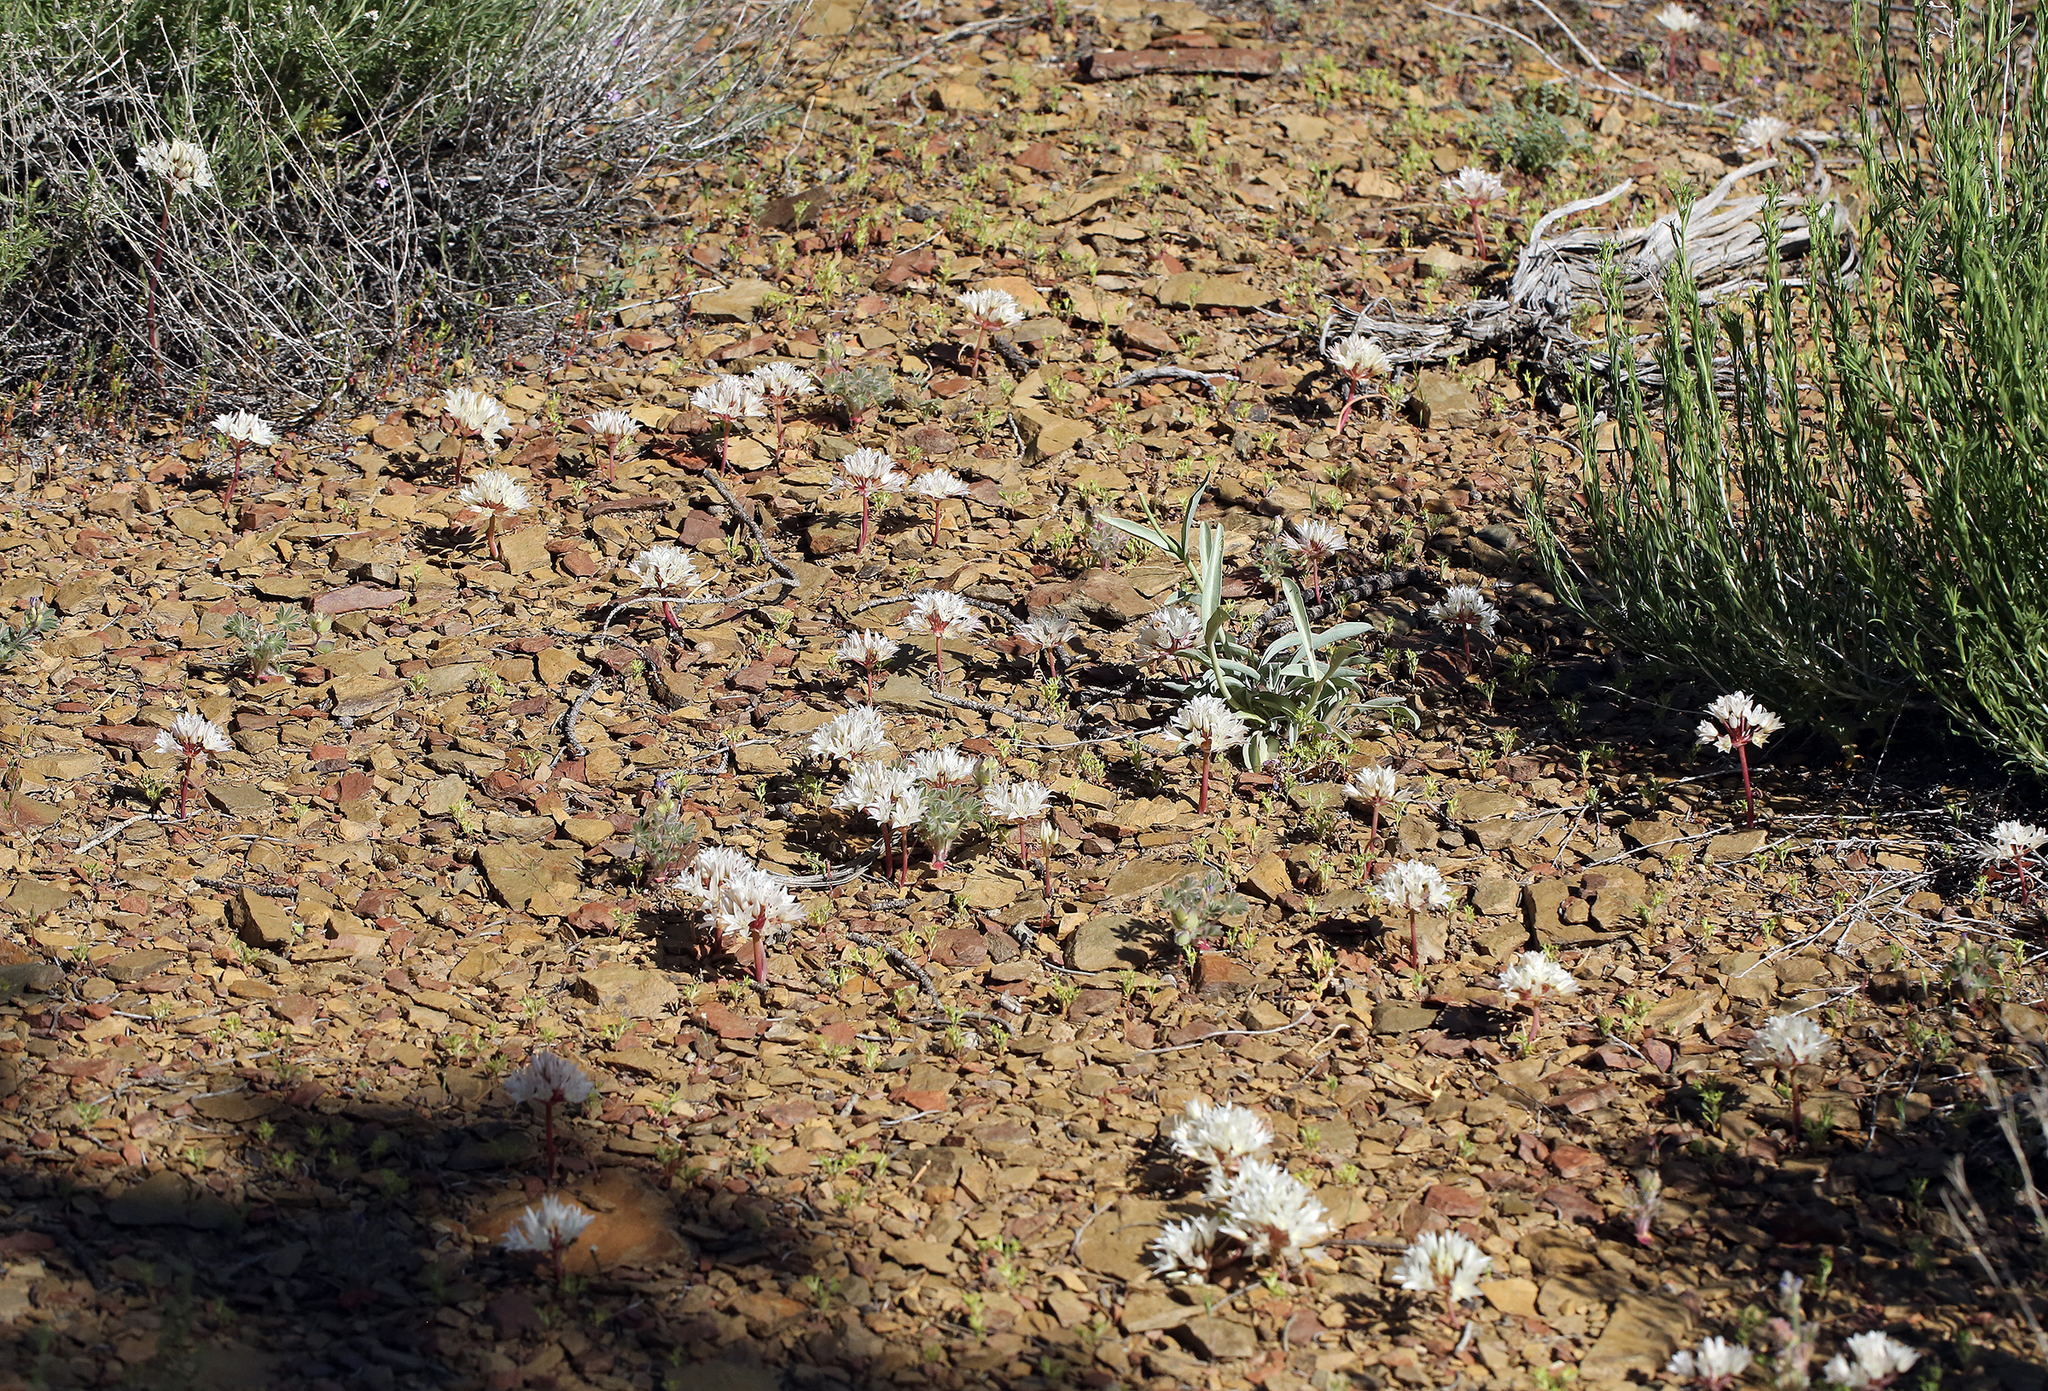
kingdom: Plantae
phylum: Tracheophyta
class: Liliopsida
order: Asparagales
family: Amaryllidaceae
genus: Allium
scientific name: Allium atrorubens
